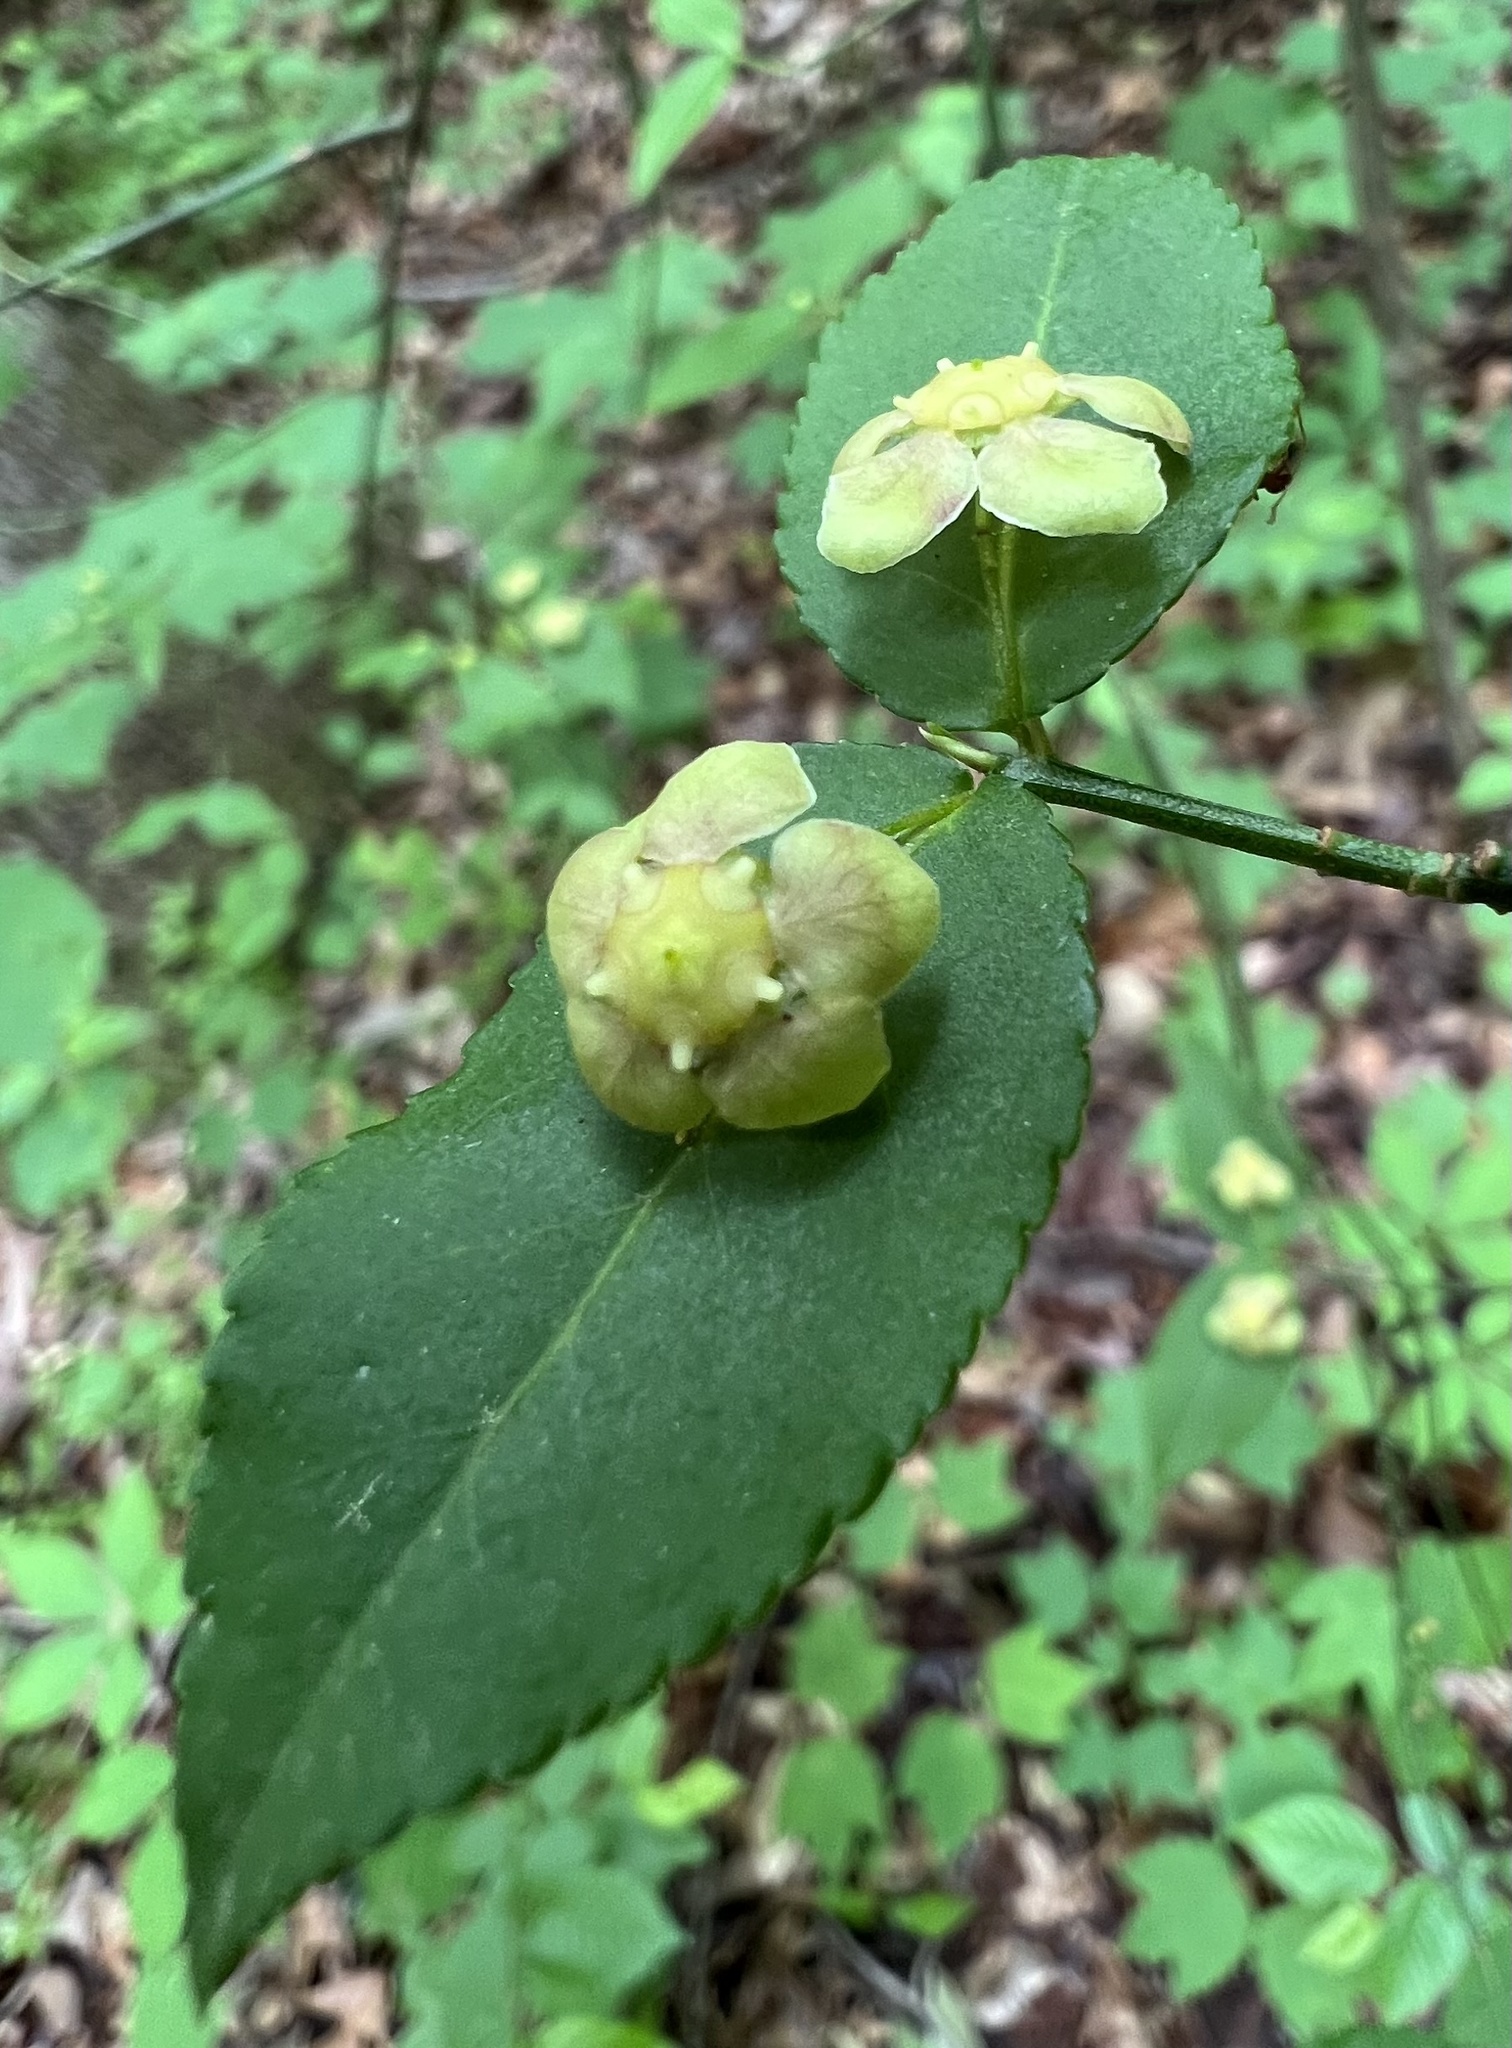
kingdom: Plantae
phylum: Tracheophyta
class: Magnoliopsida
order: Celastrales
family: Celastraceae
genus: Euonymus
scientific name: Euonymus americanus
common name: Bursting-heart
